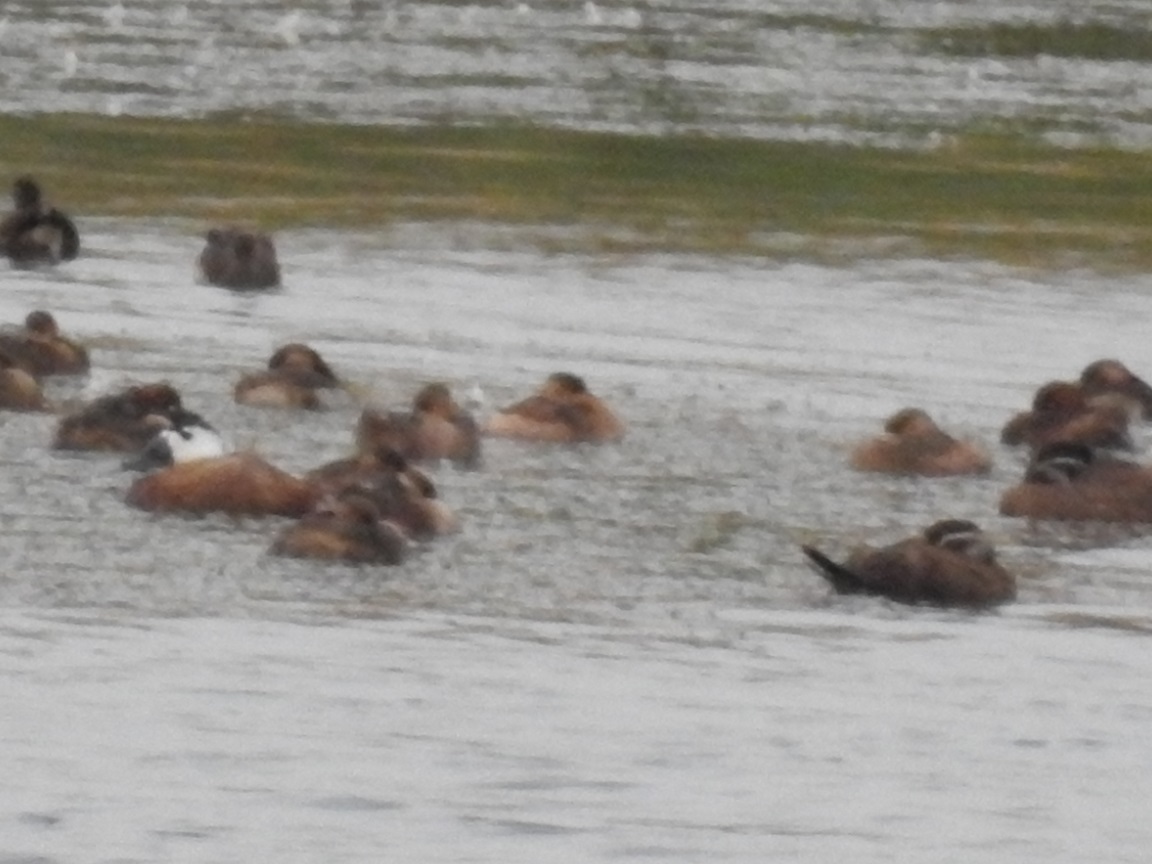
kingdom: Animalia
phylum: Chordata
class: Aves
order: Anseriformes
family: Anatidae
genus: Oxyura
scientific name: Oxyura leucocephala
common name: White-headed duck
